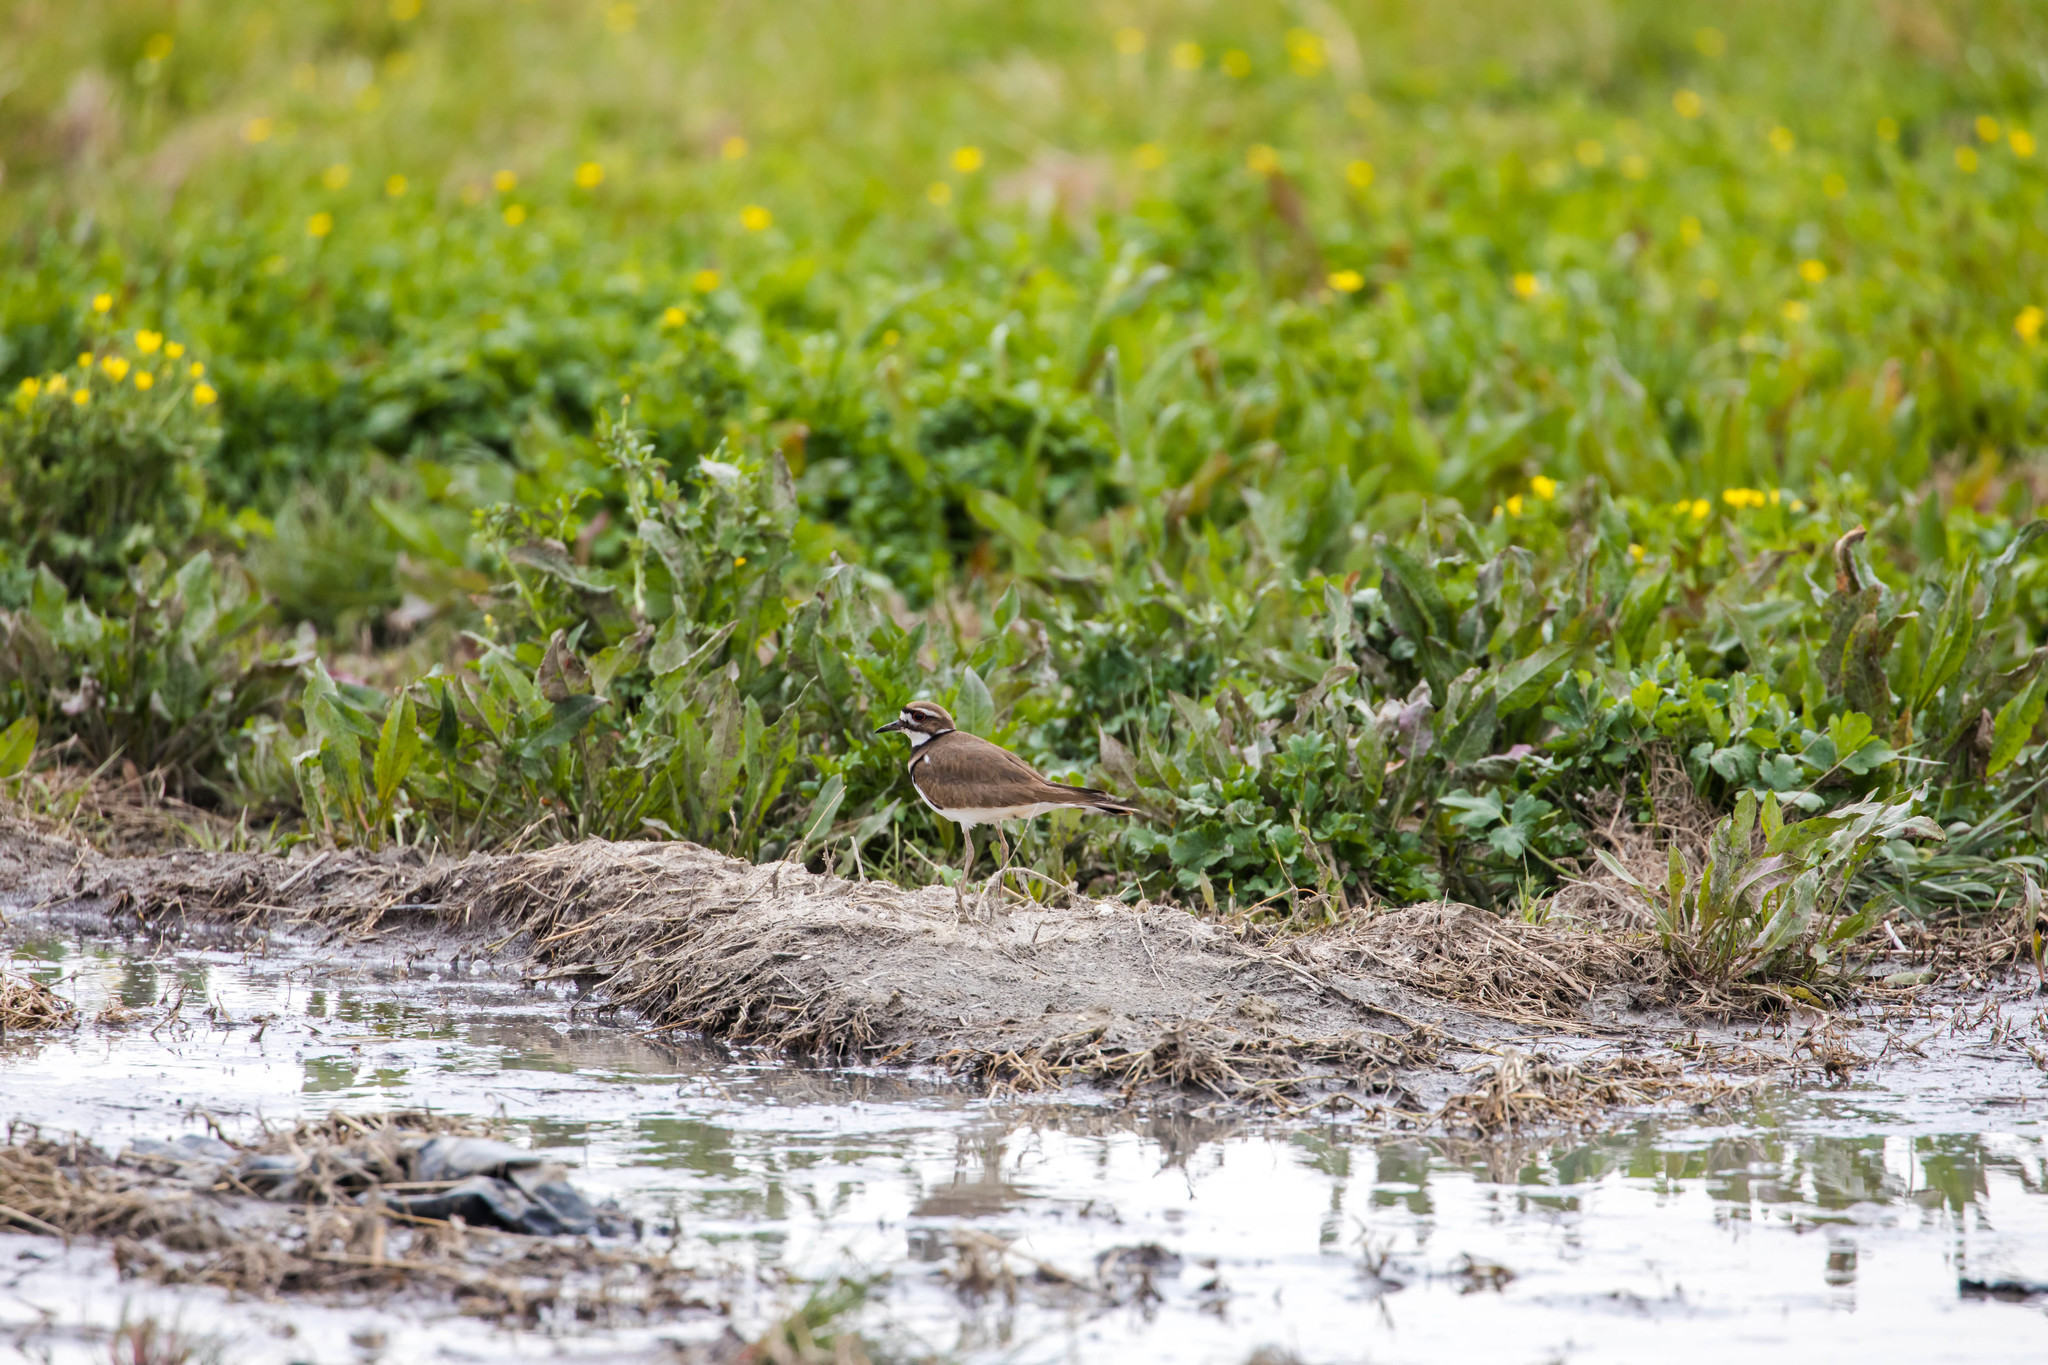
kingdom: Animalia
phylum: Chordata
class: Aves
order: Charadriiformes
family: Charadriidae
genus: Charadrius
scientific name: Charadrius vociferus
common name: Killdeer
